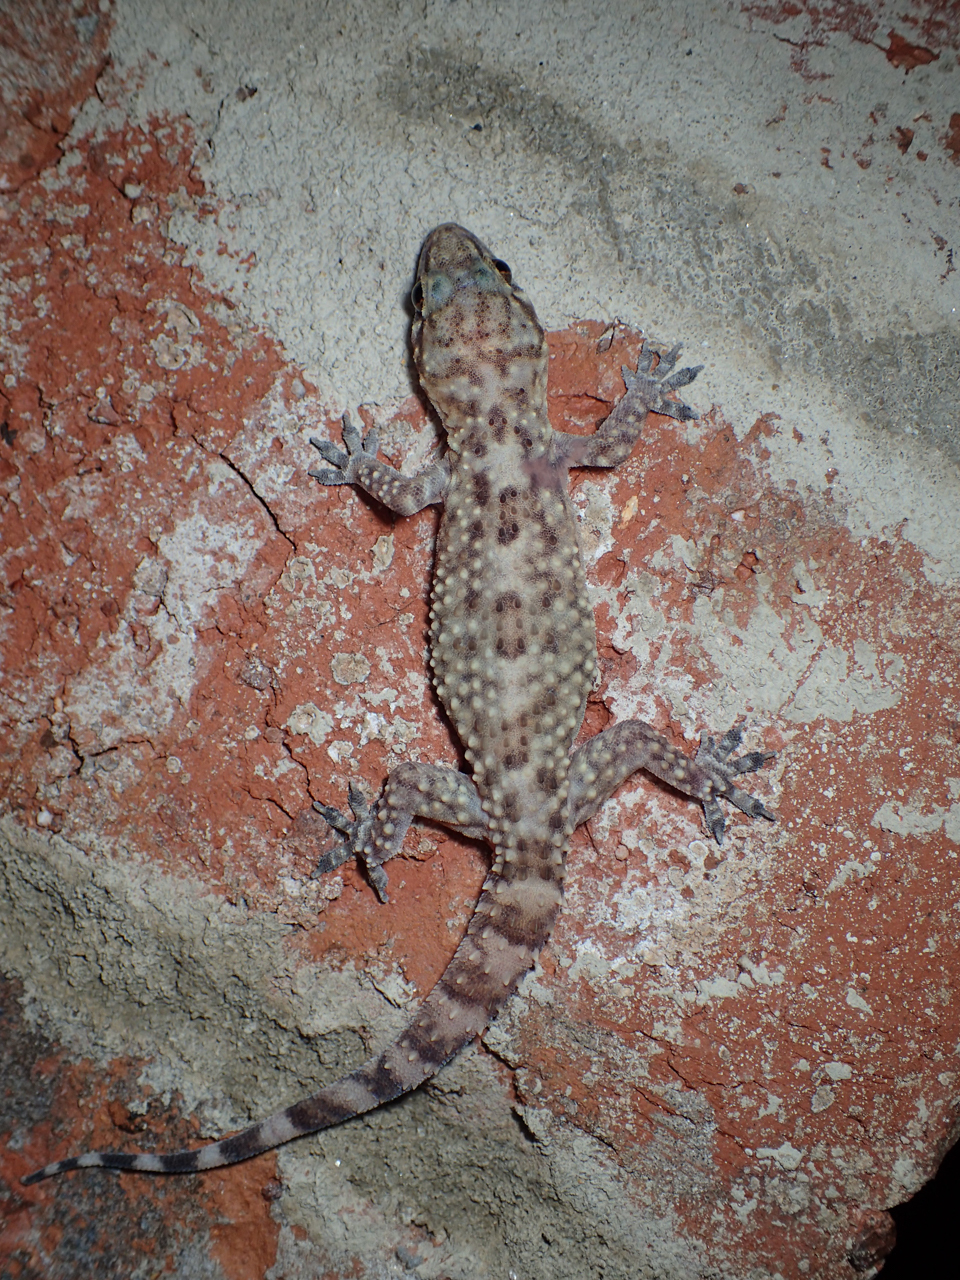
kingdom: Animalia
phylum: Chordata
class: Squamata
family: Gekkonidae
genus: Hemidactylus
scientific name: Hemidactylus turcicus
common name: Turkish gecko
